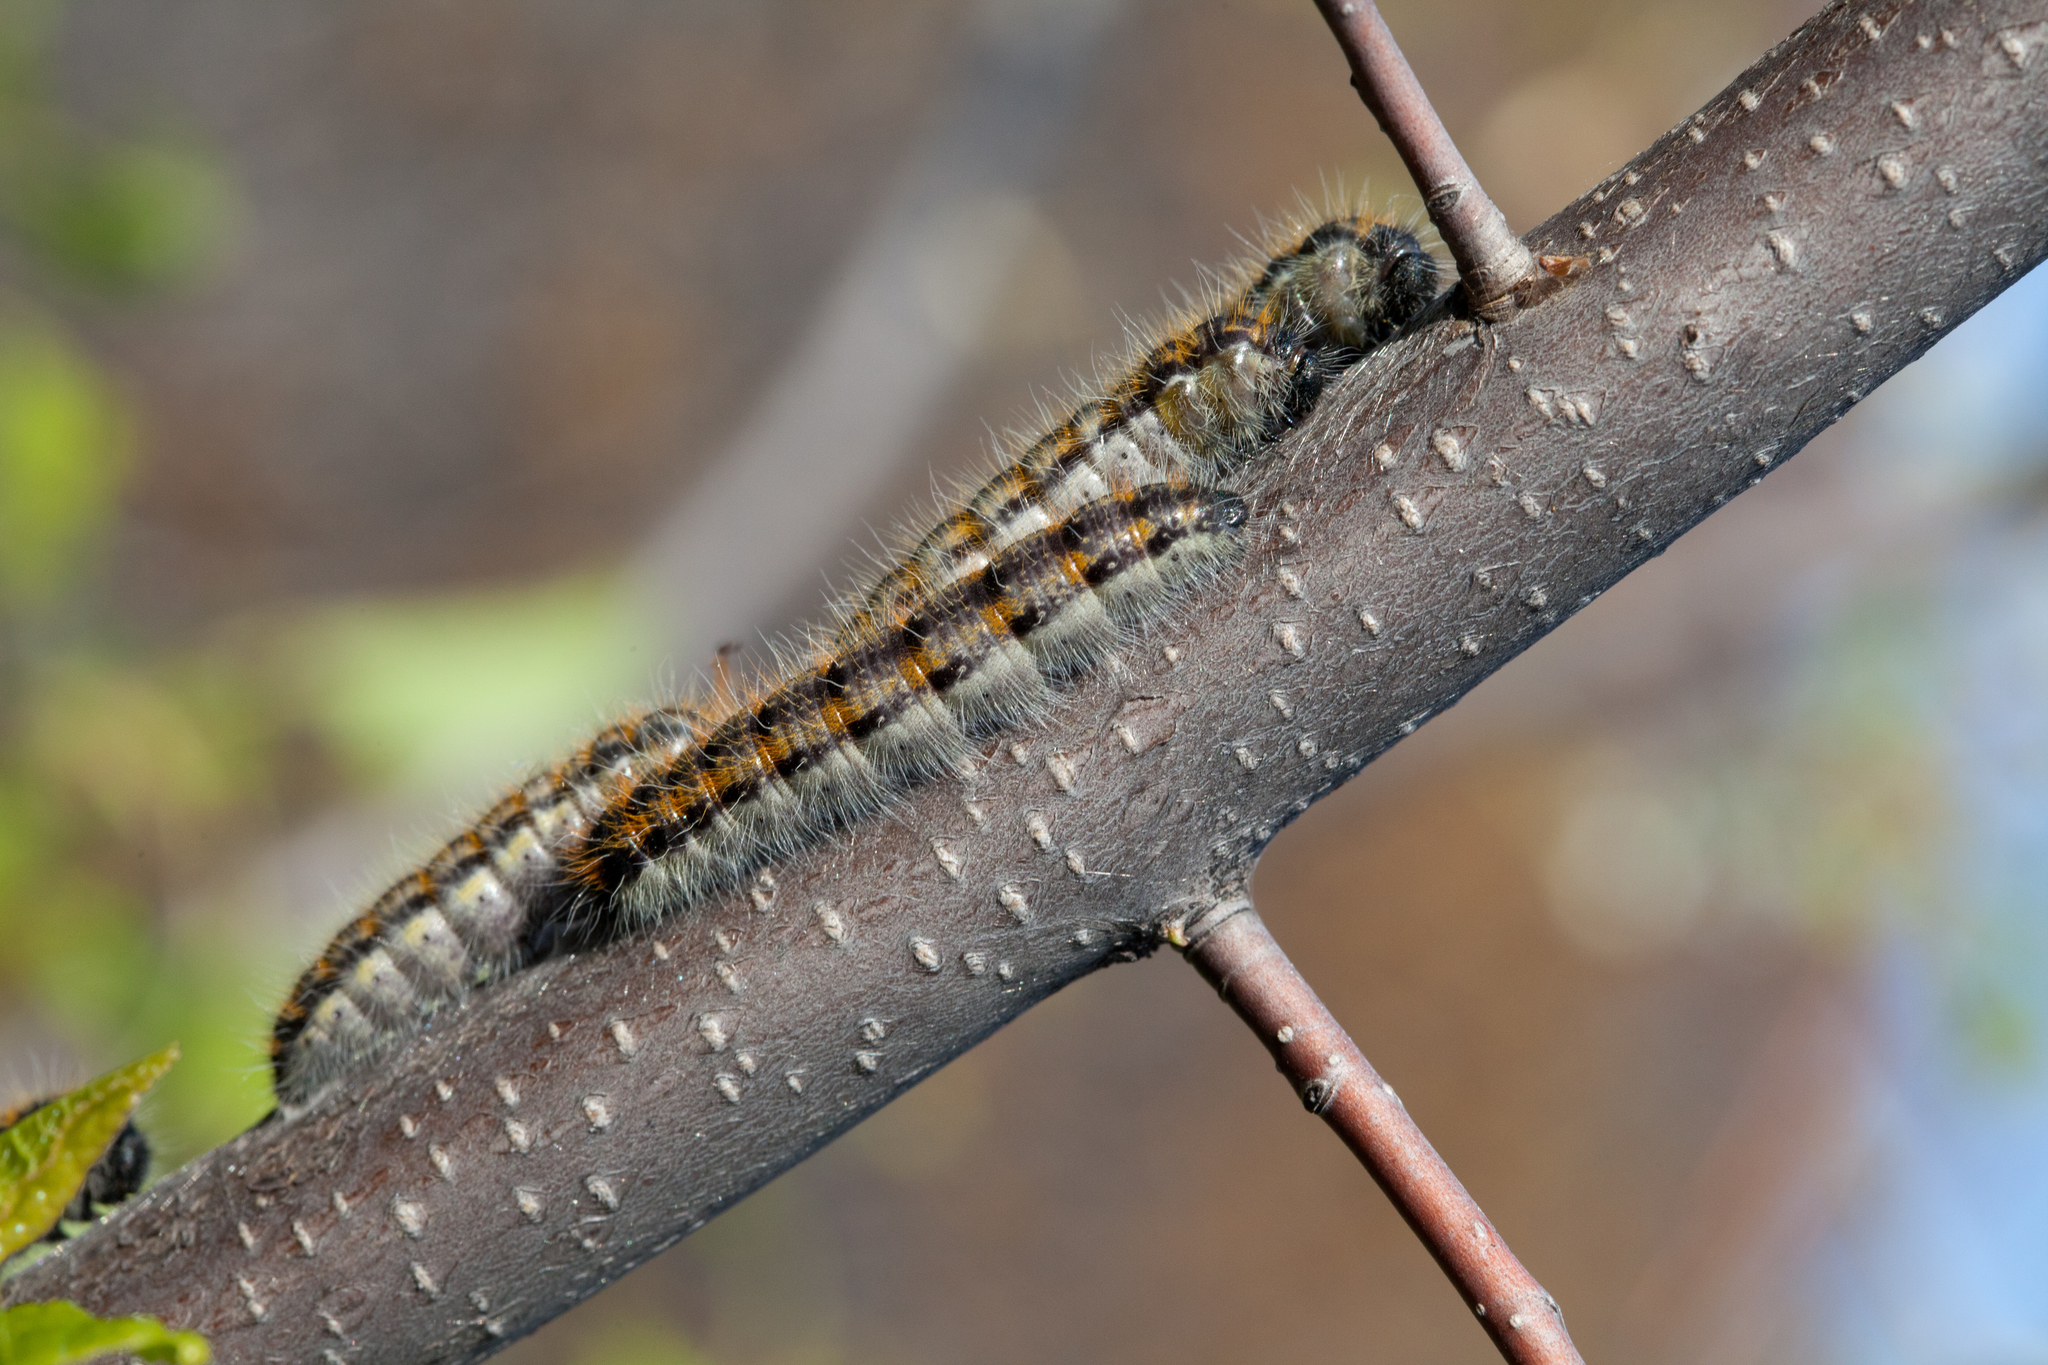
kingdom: Animalia
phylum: Arthropoda
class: Insecta
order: Lepidoptera
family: Pieridae
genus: Aporia
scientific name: Aporia crataegi
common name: Black-veined white
